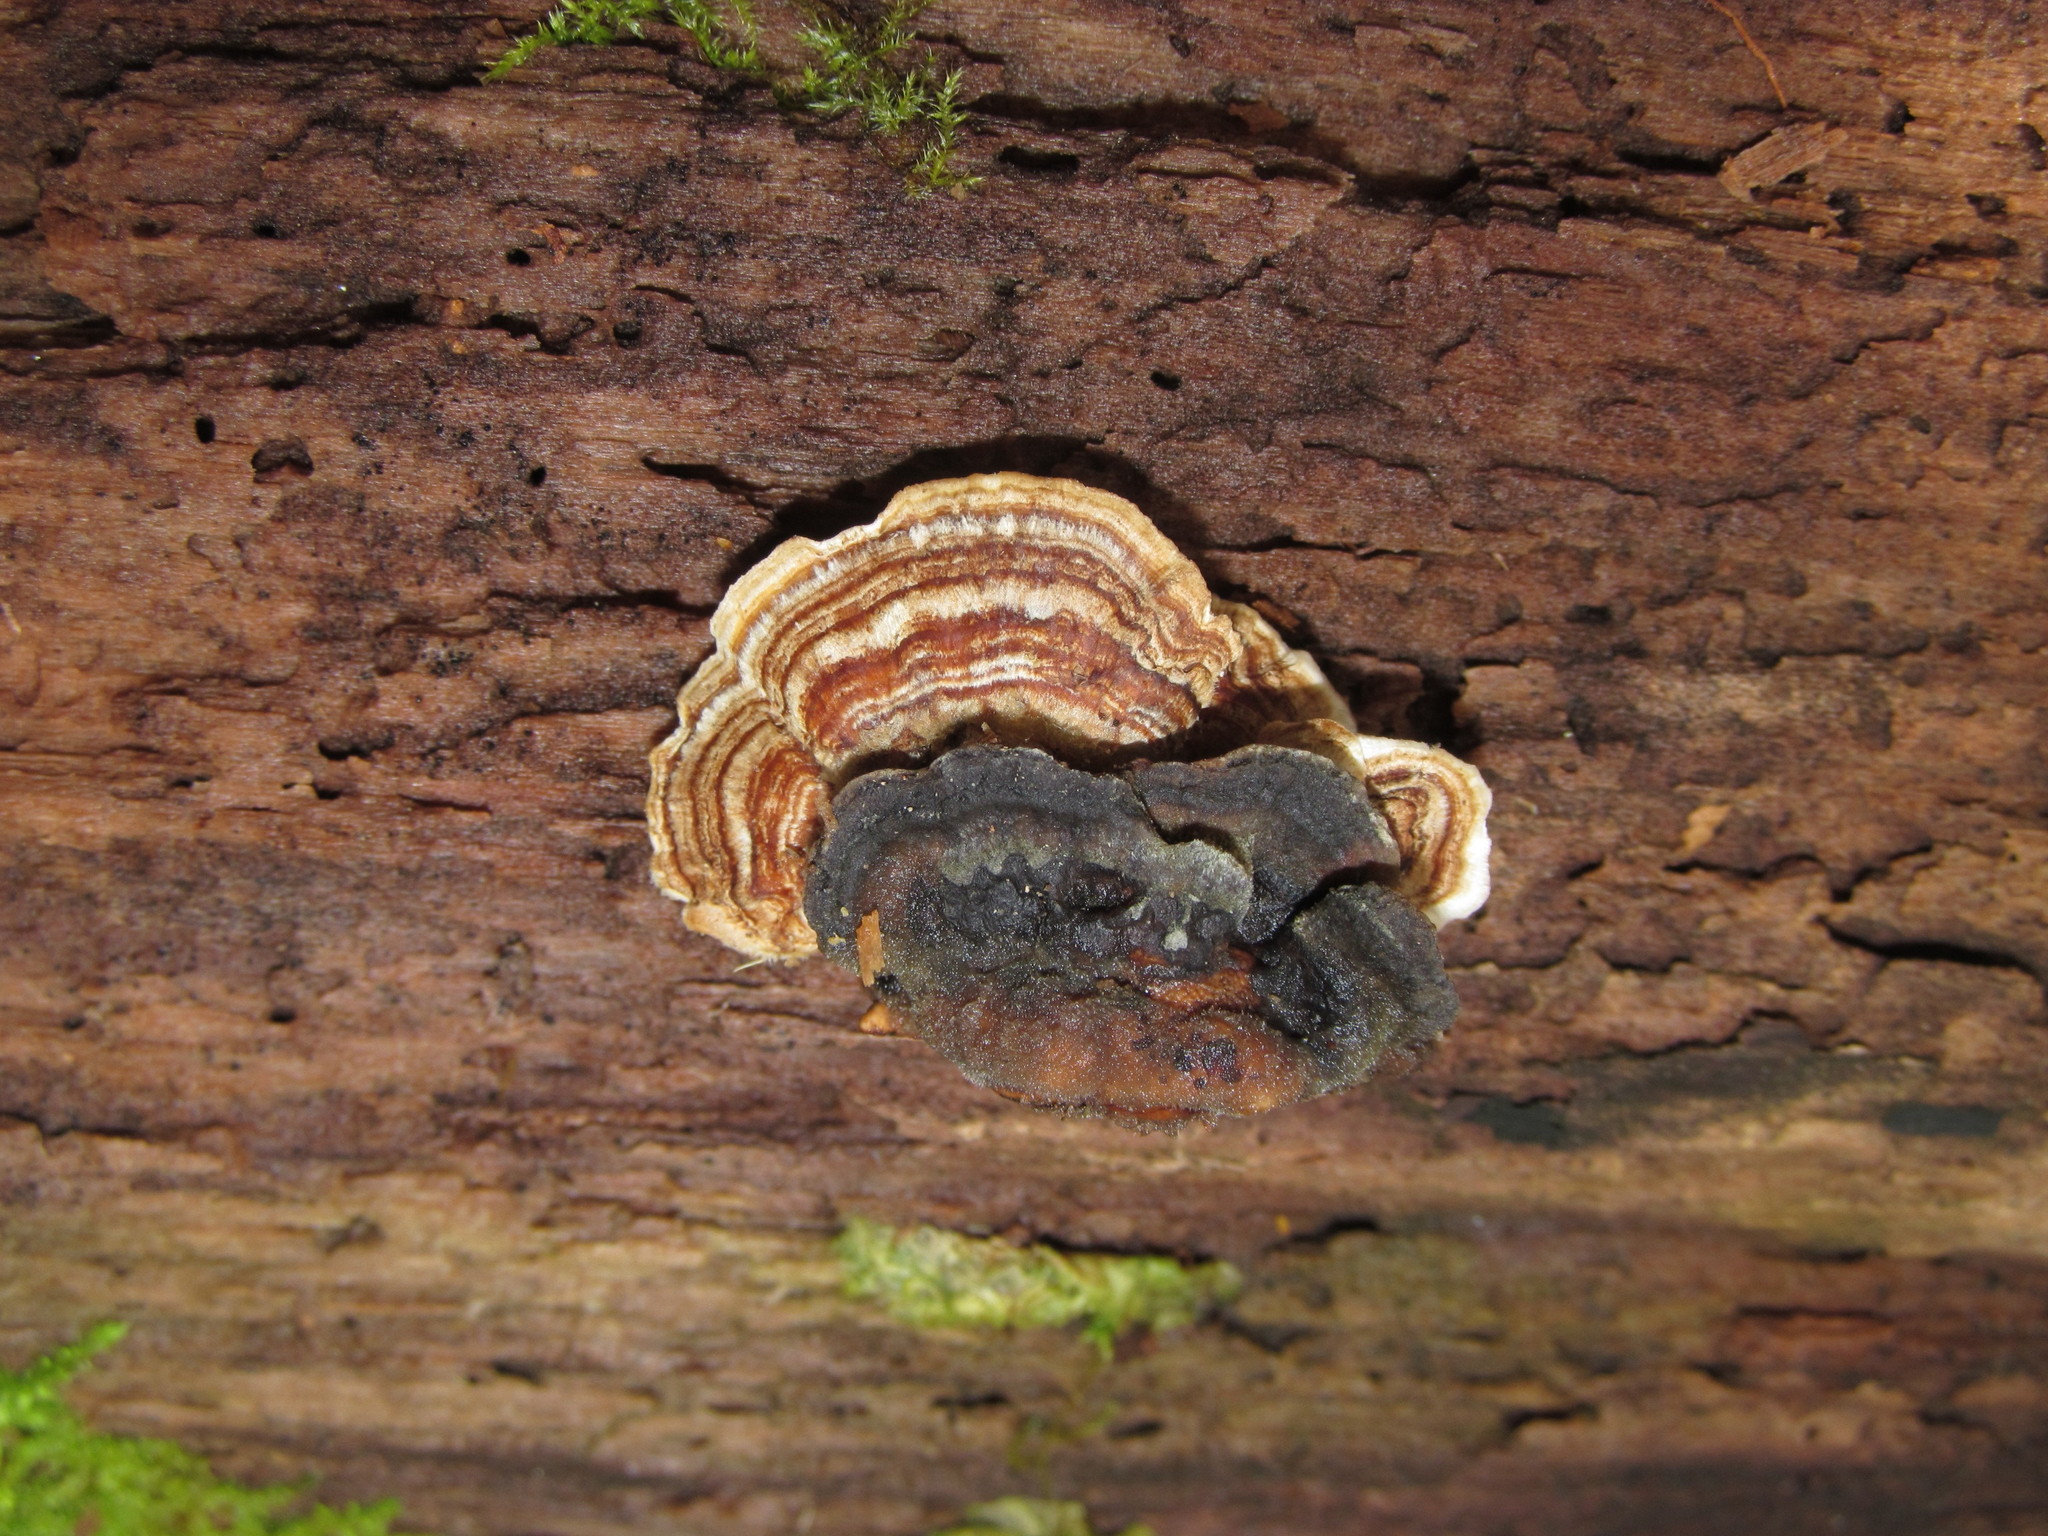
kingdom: Fungi
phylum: Basidiomycota
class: Agaricomycetes
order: Polyporales
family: Polyporaceae
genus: Trametes
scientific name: Trametes versicolor
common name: Turkeytail
